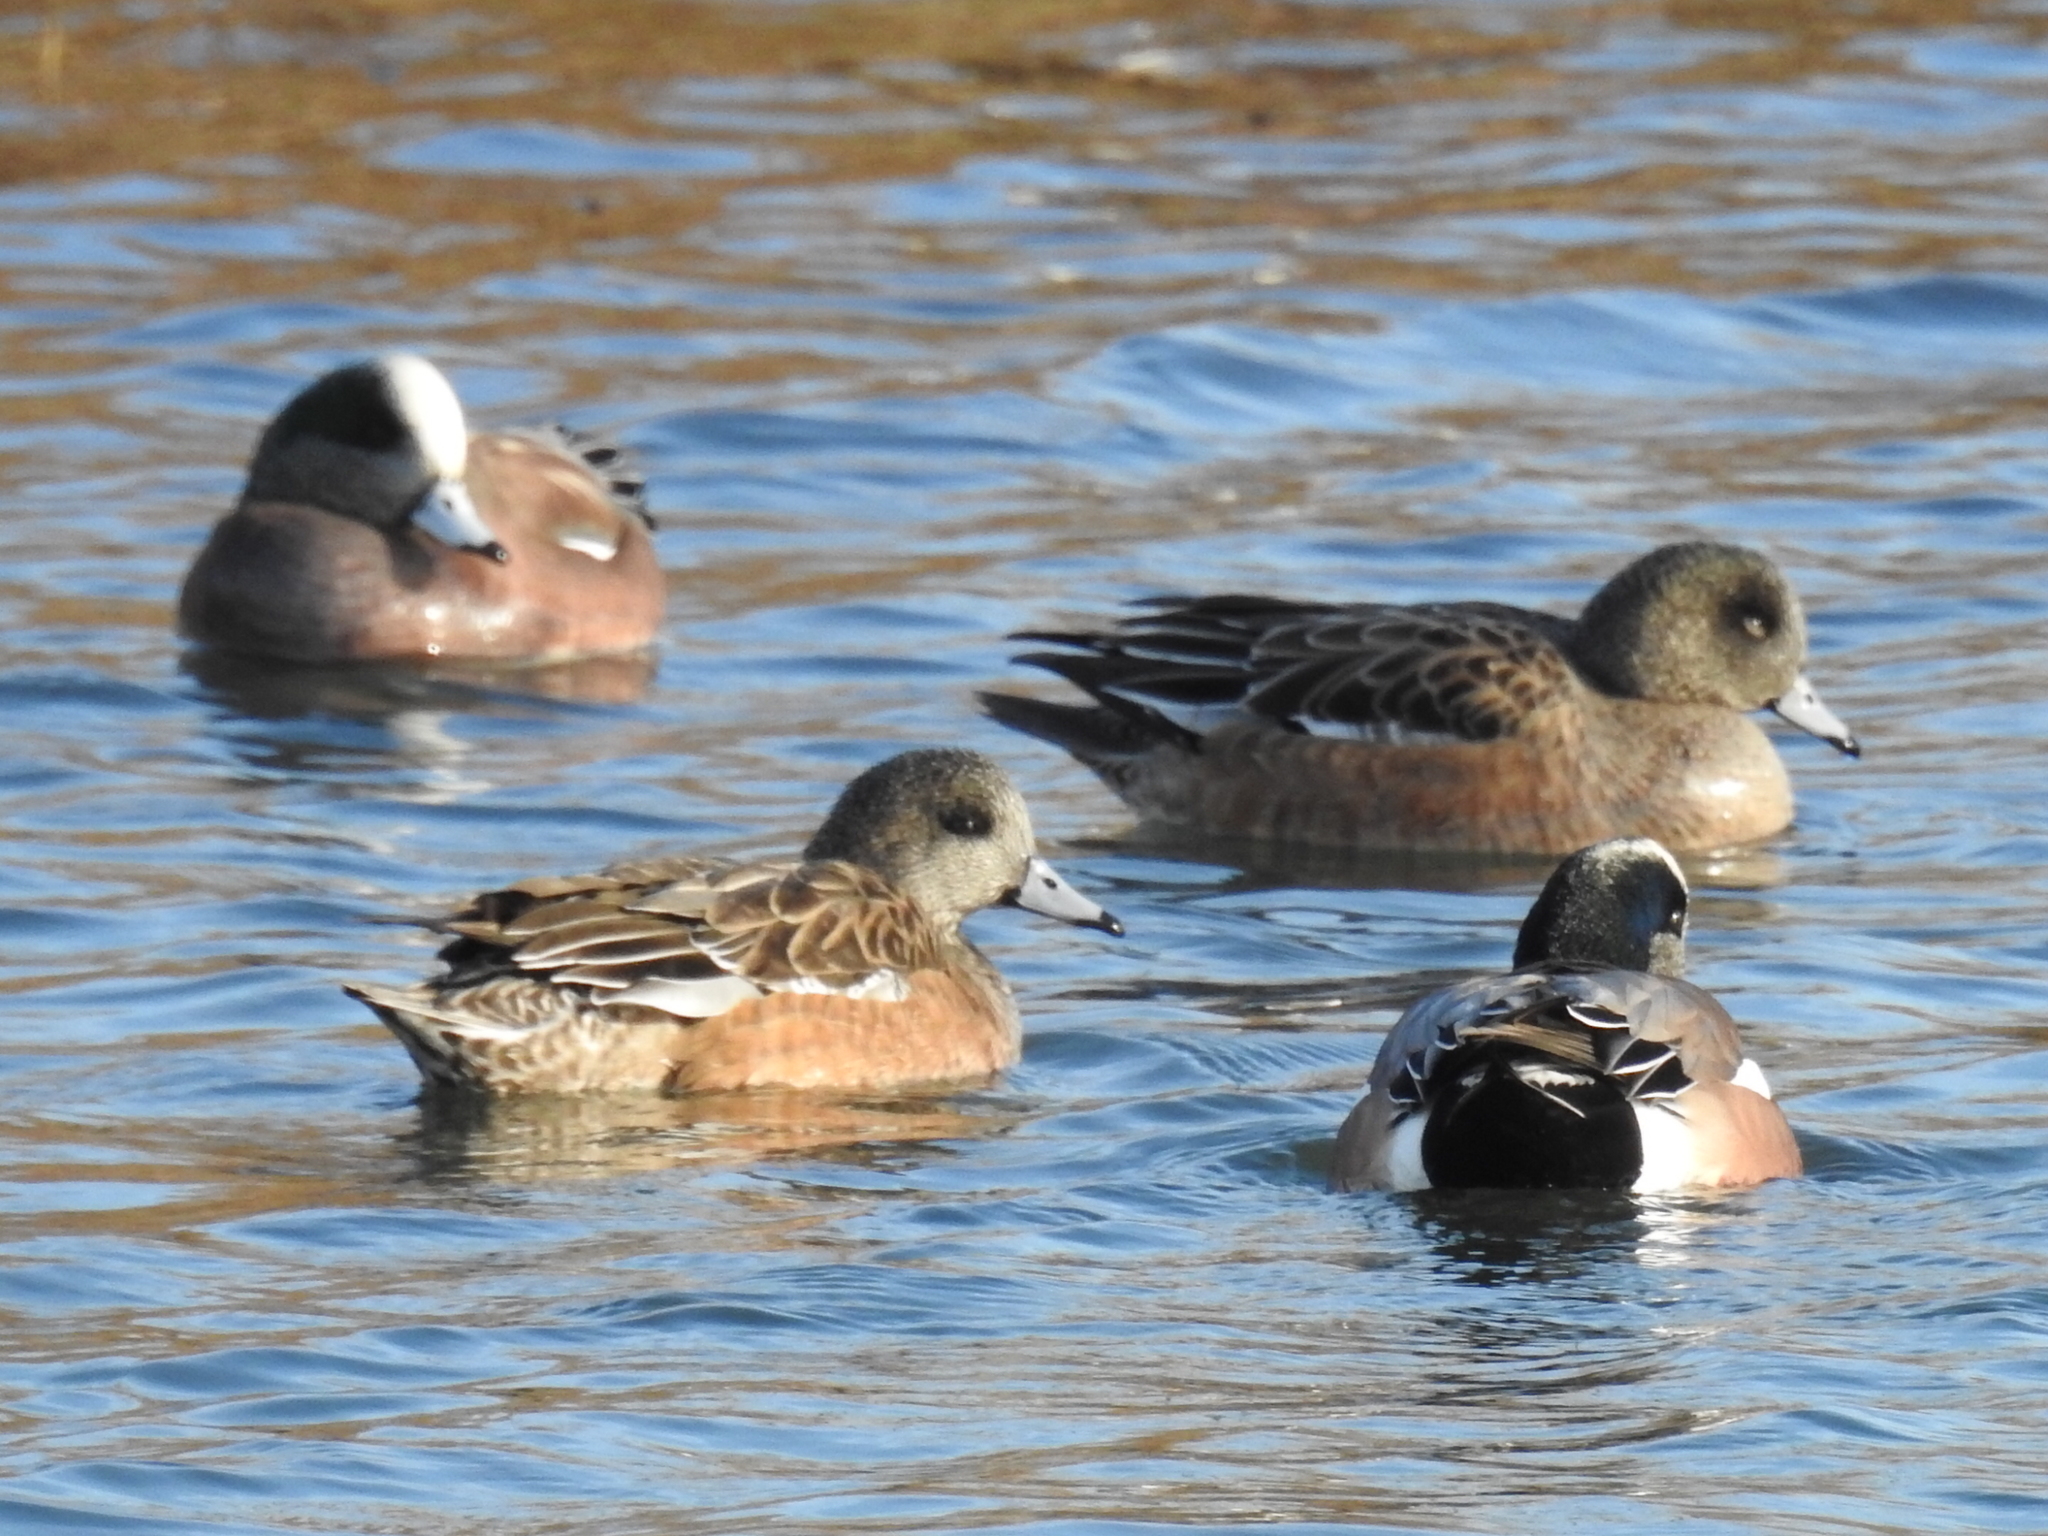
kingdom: Animalia
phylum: Chordata
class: Aves
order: Anseriformes
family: Anatidae
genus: Mareca
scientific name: Mareca americana
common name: American wigeon
